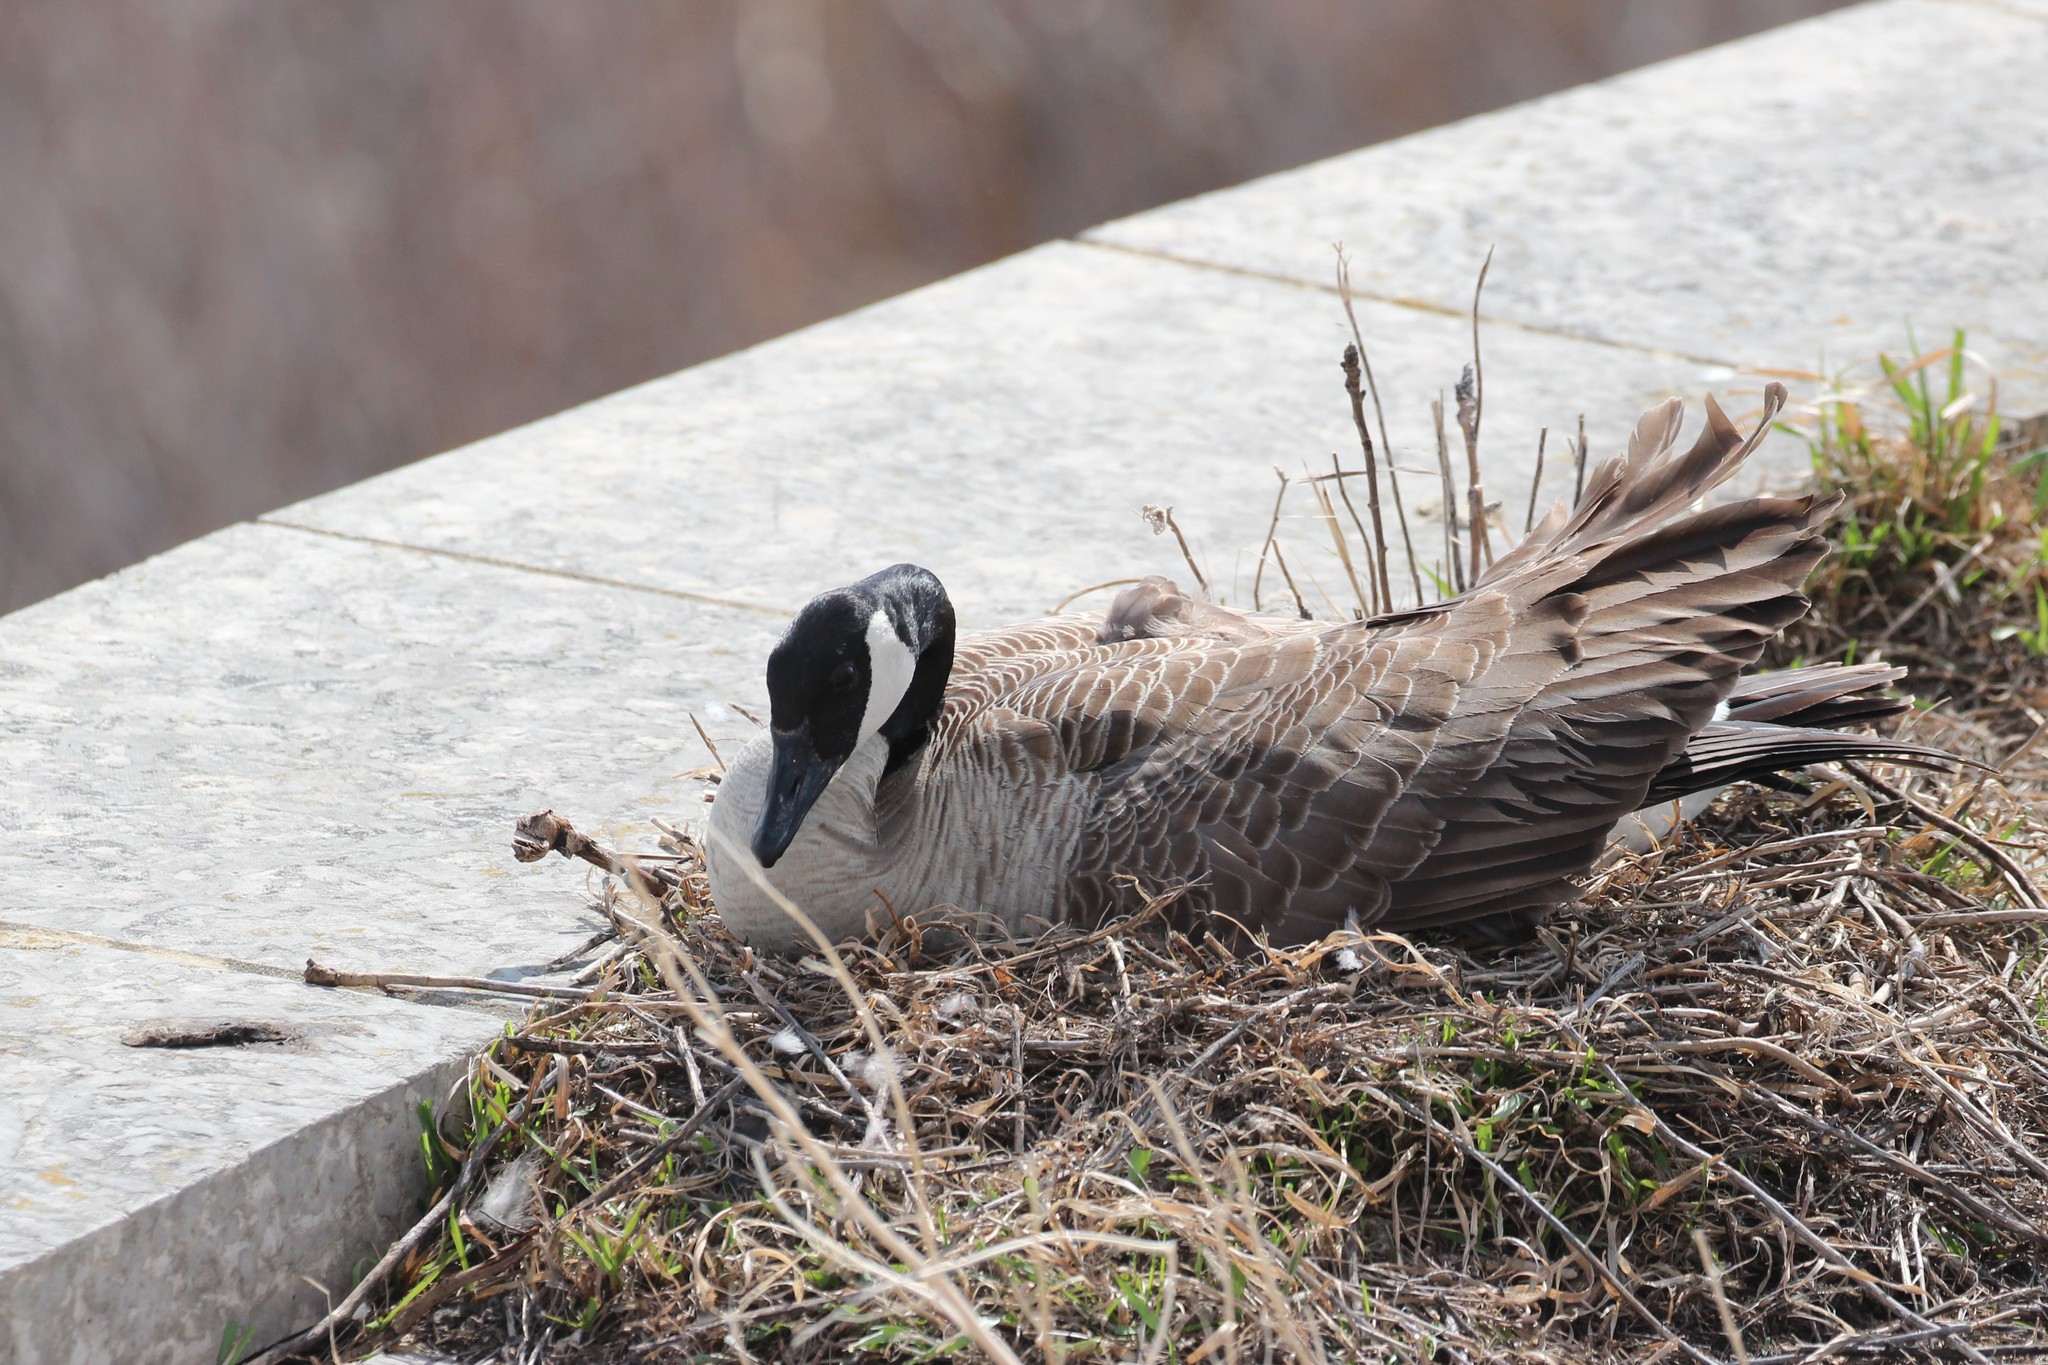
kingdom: Animalia
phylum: Chordata
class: Aves
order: Anseriformes
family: Anatidae
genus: Branta
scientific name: Branta canadensis
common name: Canada goose
